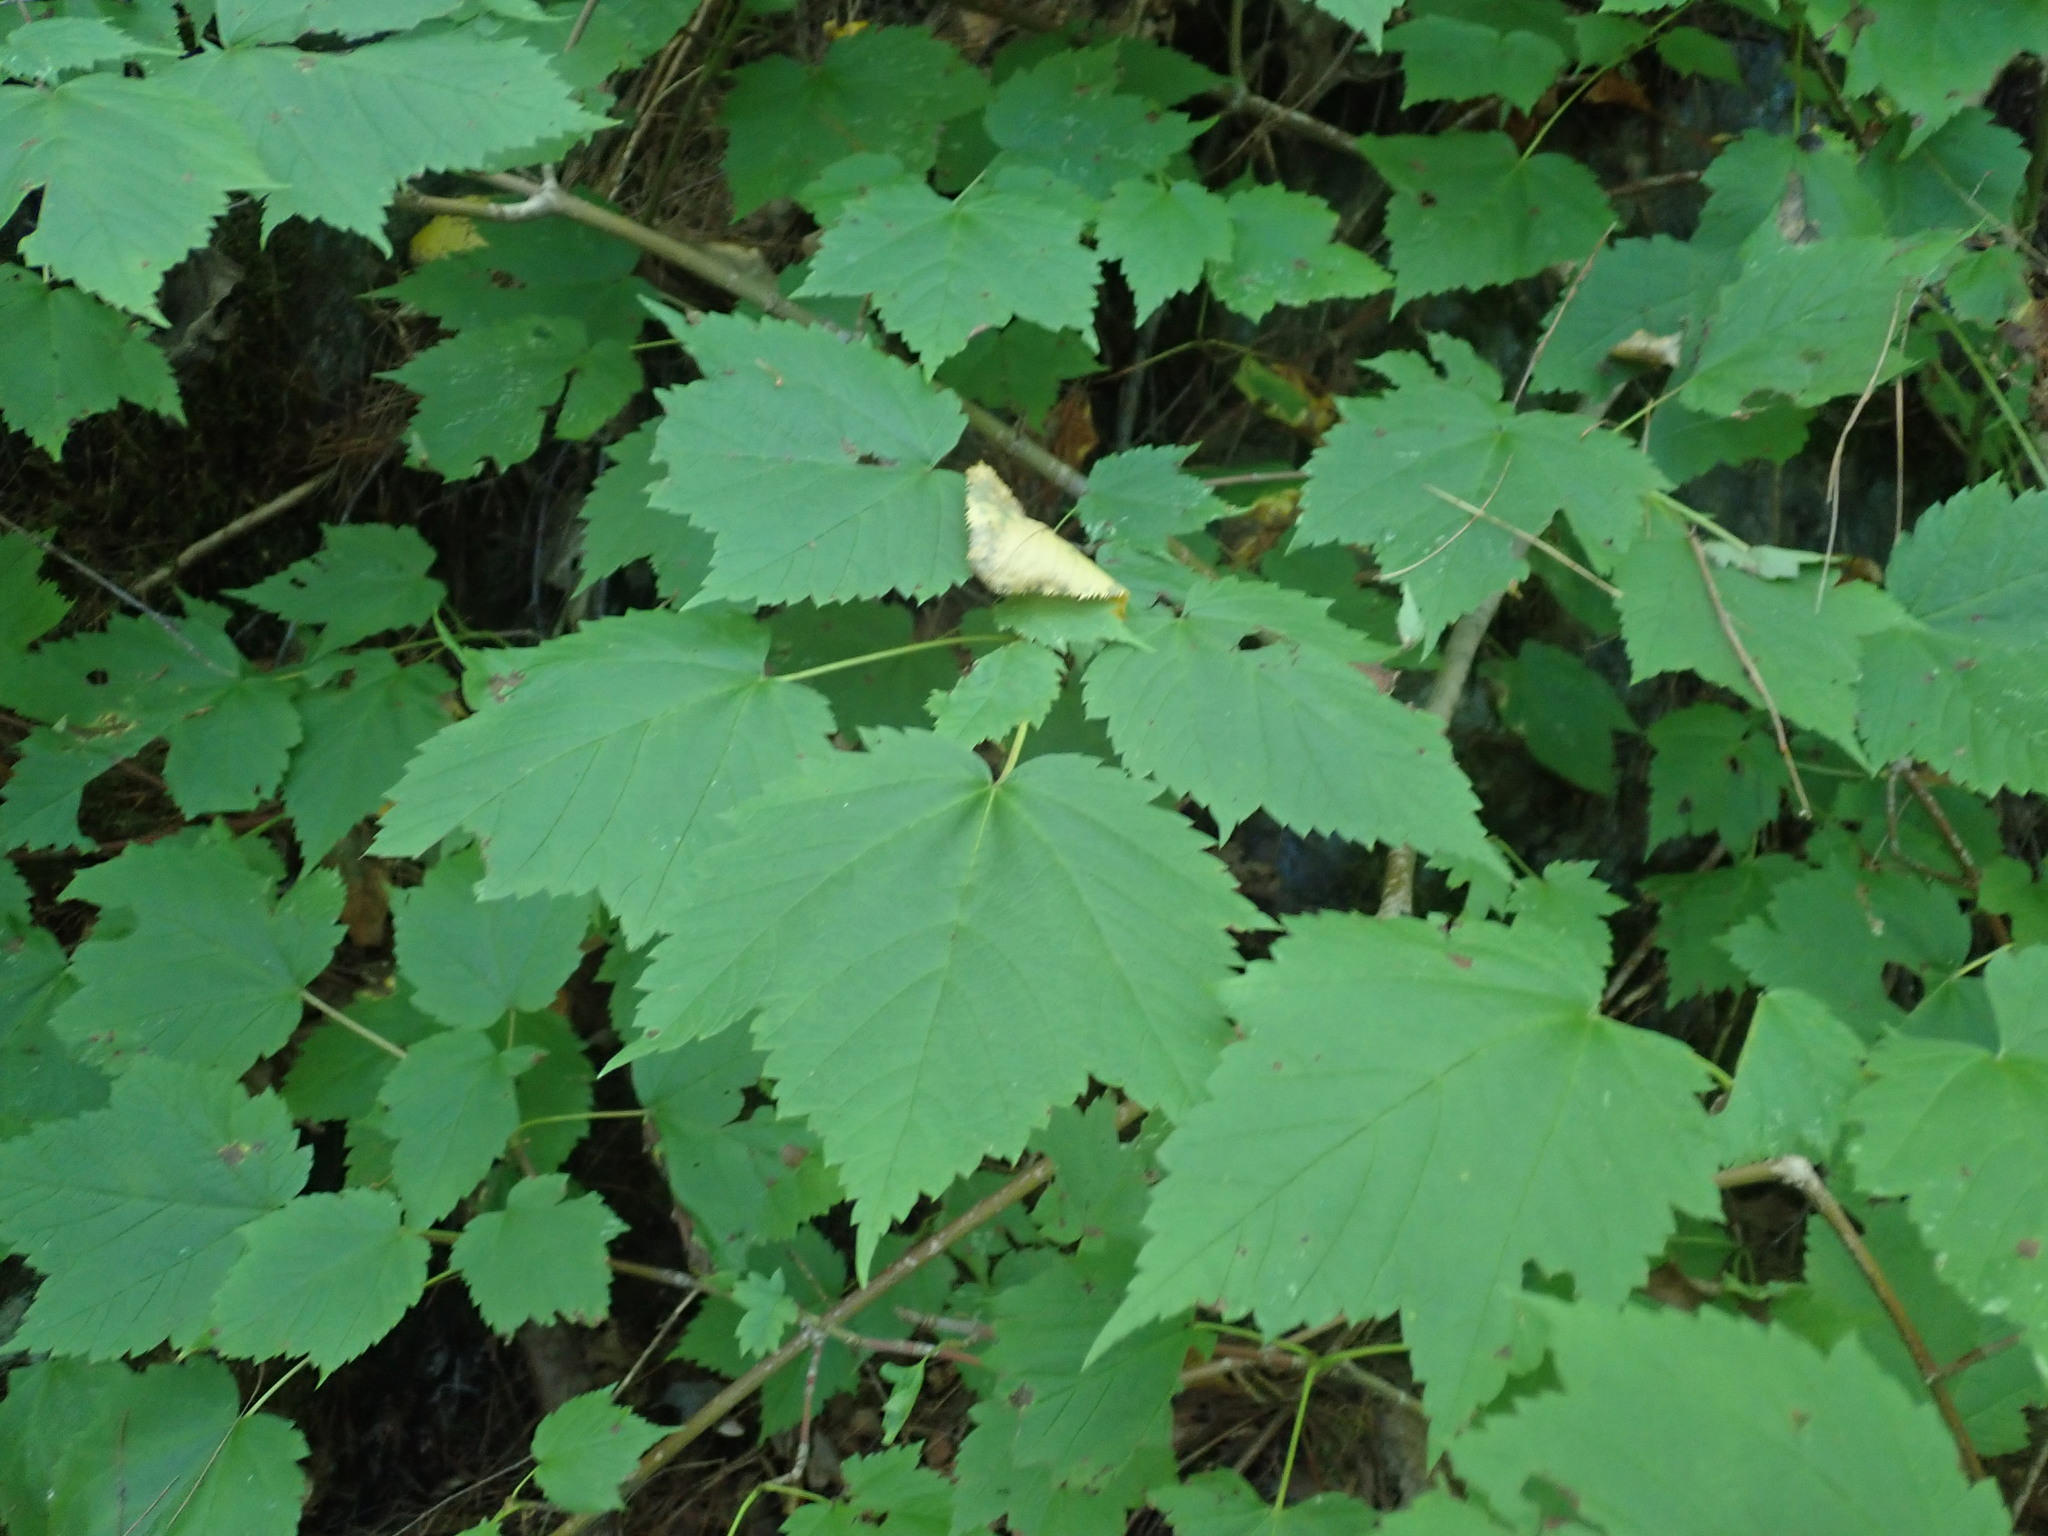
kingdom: Plantae
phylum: Tracheophyta
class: Magnoliopsida
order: Sapindales
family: Sapindaceae
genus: Acer
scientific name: Acer spicatum
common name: Mountain maple
